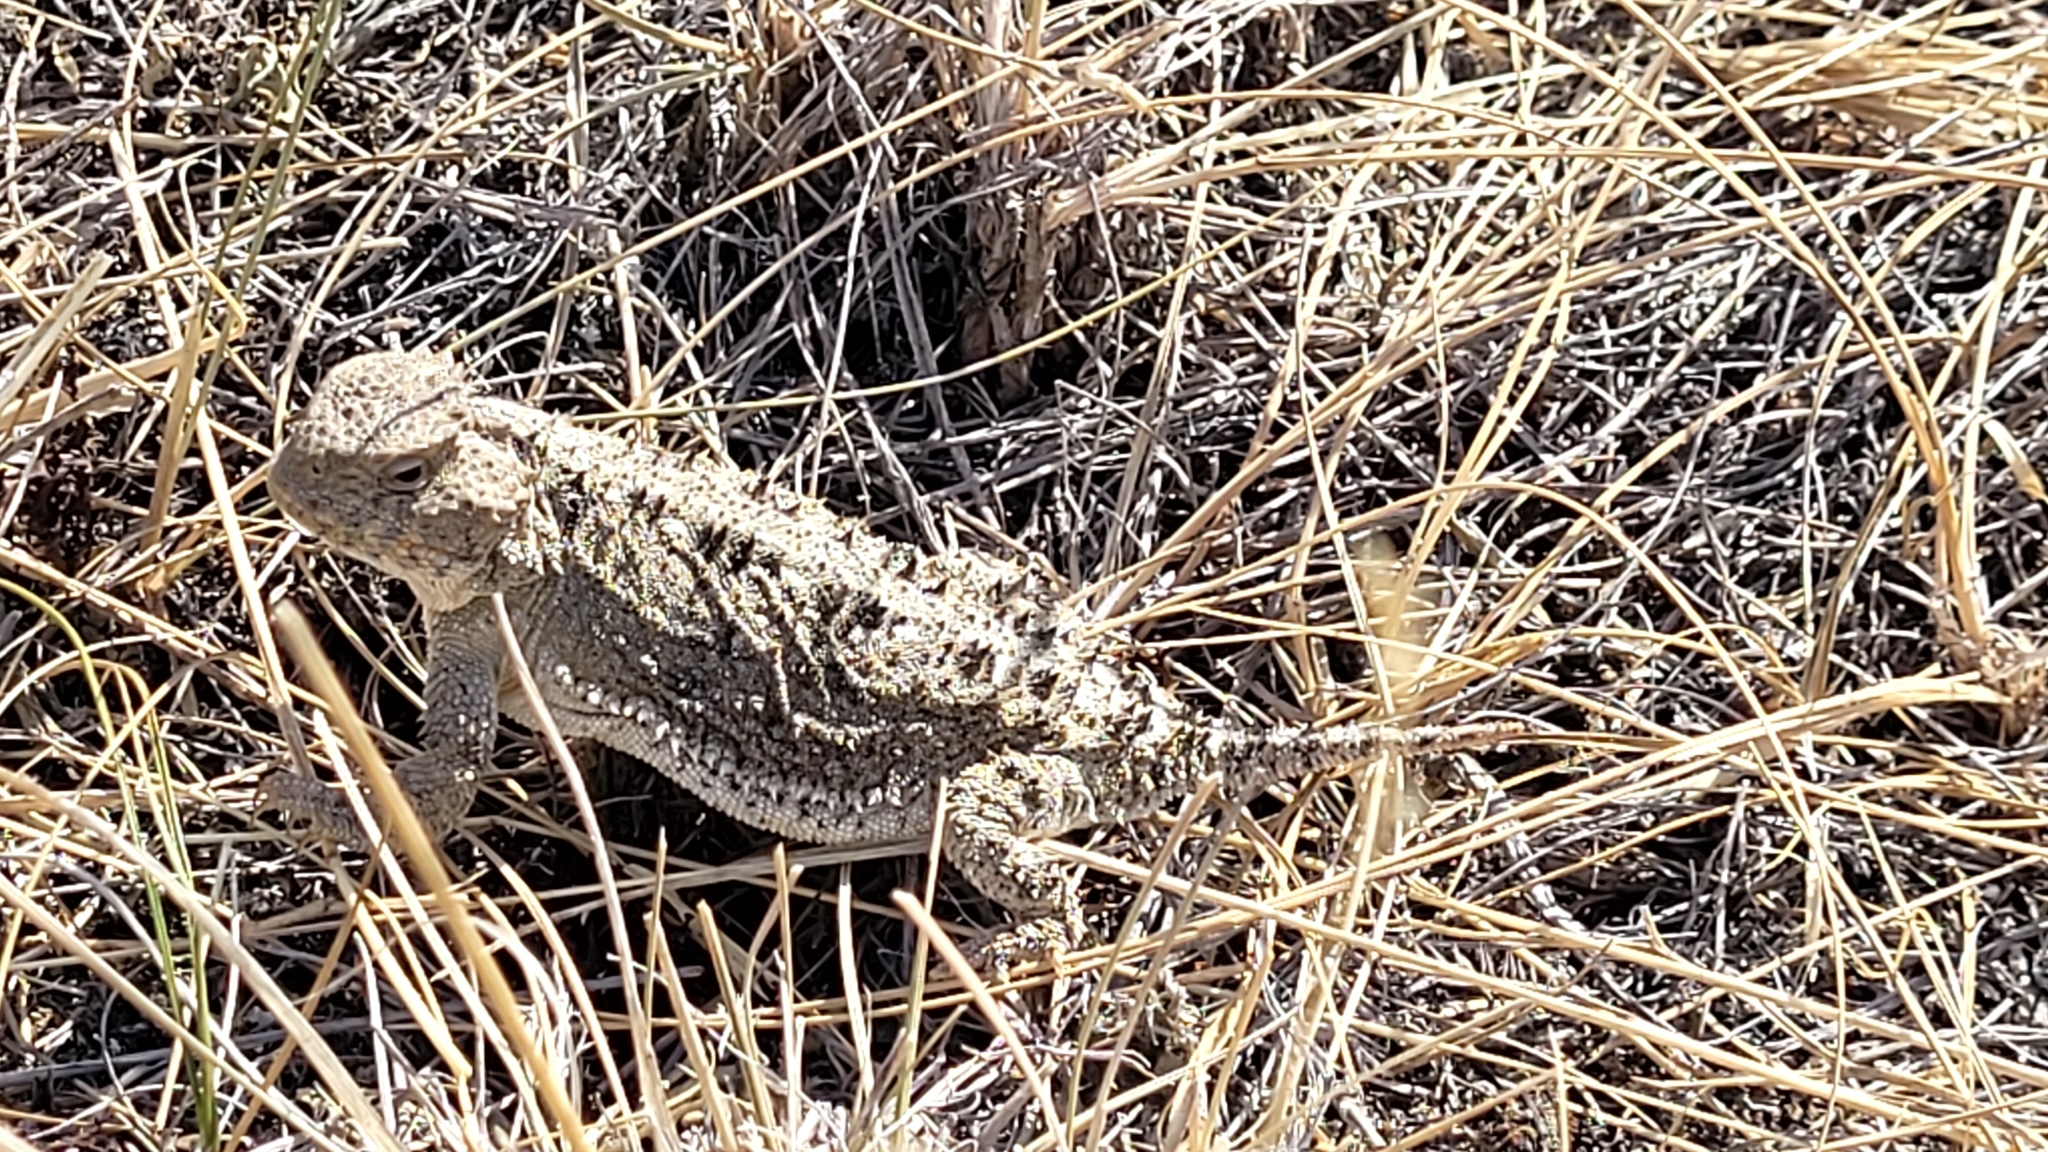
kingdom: Animalia
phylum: Chordata
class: Squamata
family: Phrynosomatidae
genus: Phrynosoma
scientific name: Phrynosoma hernandesi
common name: Greater short-horned lizard
